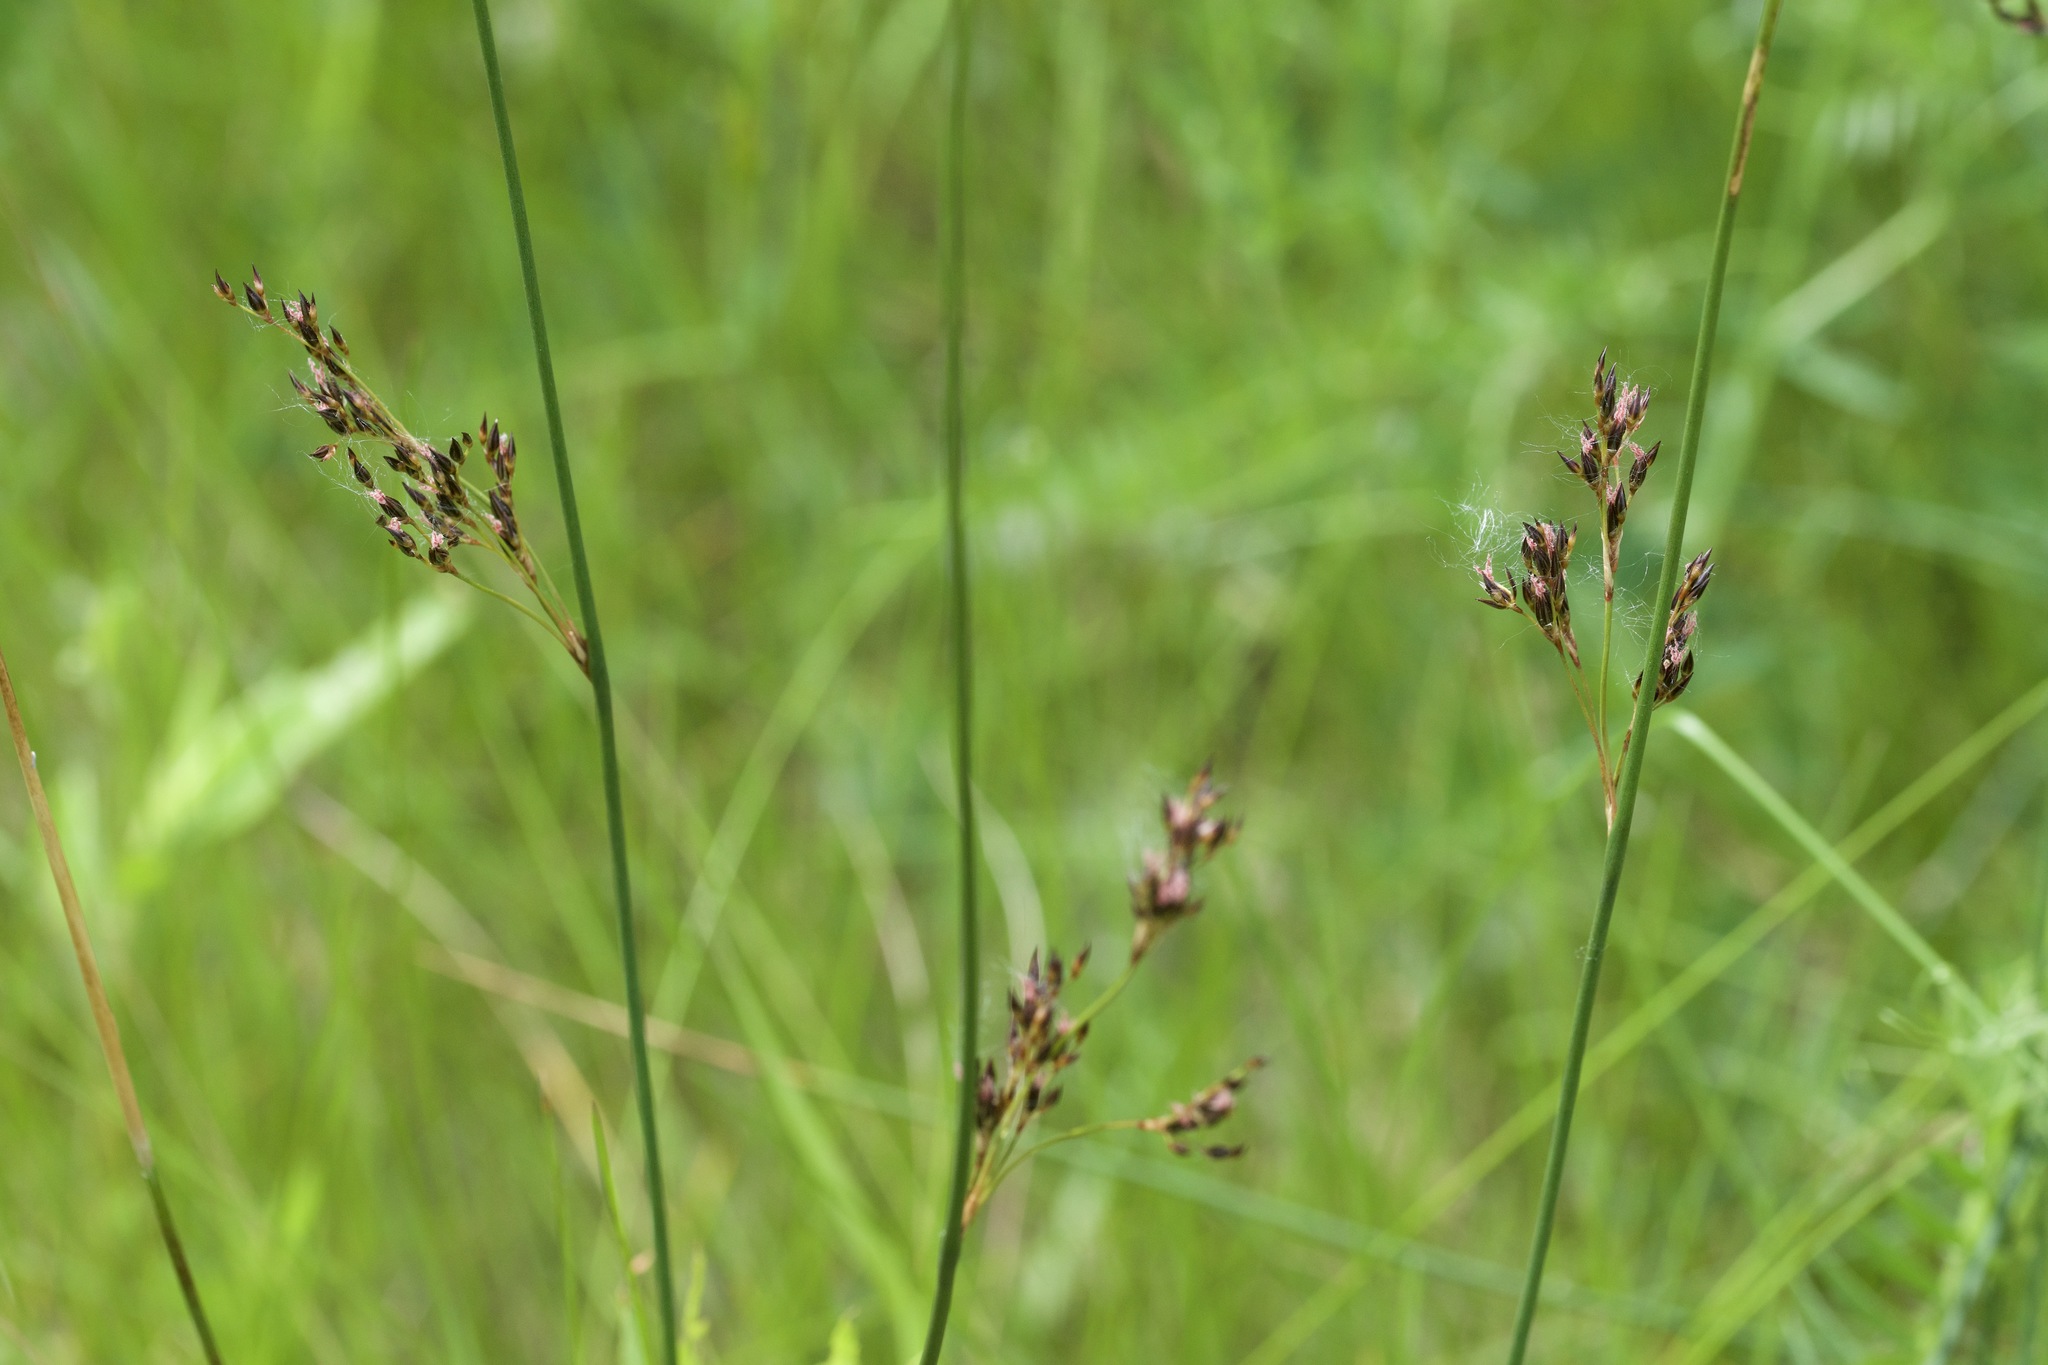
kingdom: Plantae
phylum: Tracheophyta
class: Liliopsida
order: Poales
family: Juncaceae
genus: Juncus
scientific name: Juncus balticus
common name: Baltic rush
